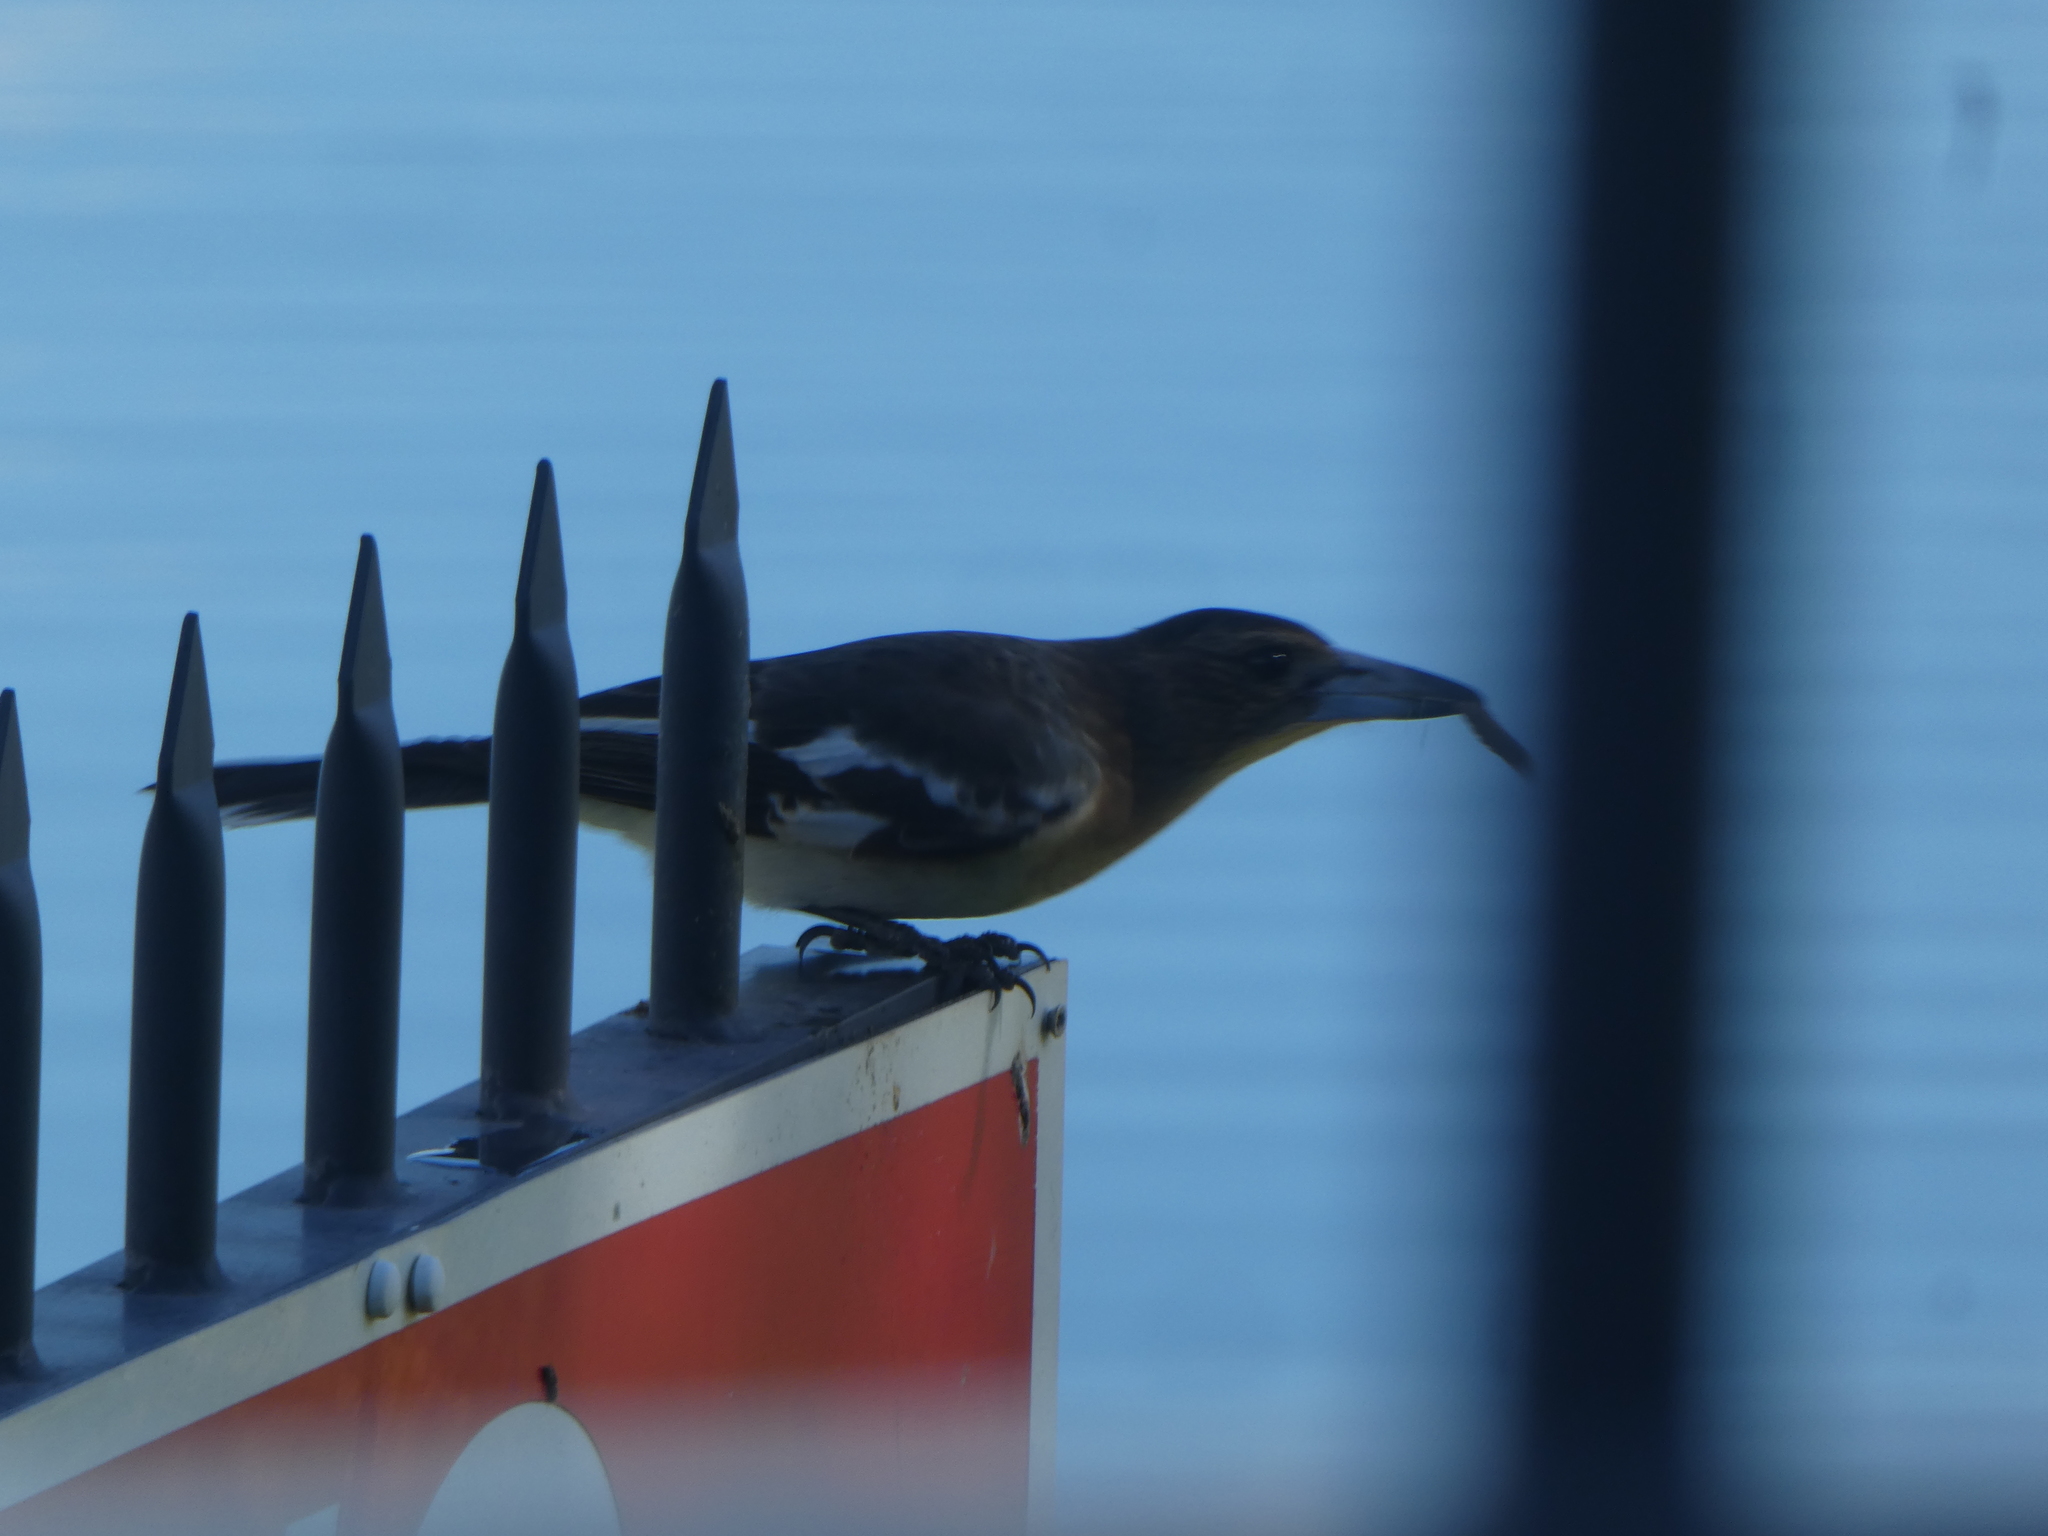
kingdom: Animalia
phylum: Chordata
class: Aves
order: Passeriformes
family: Cracticidae
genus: Cracticus
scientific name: Cracticus nigrogularis
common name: Pied butcherbird
